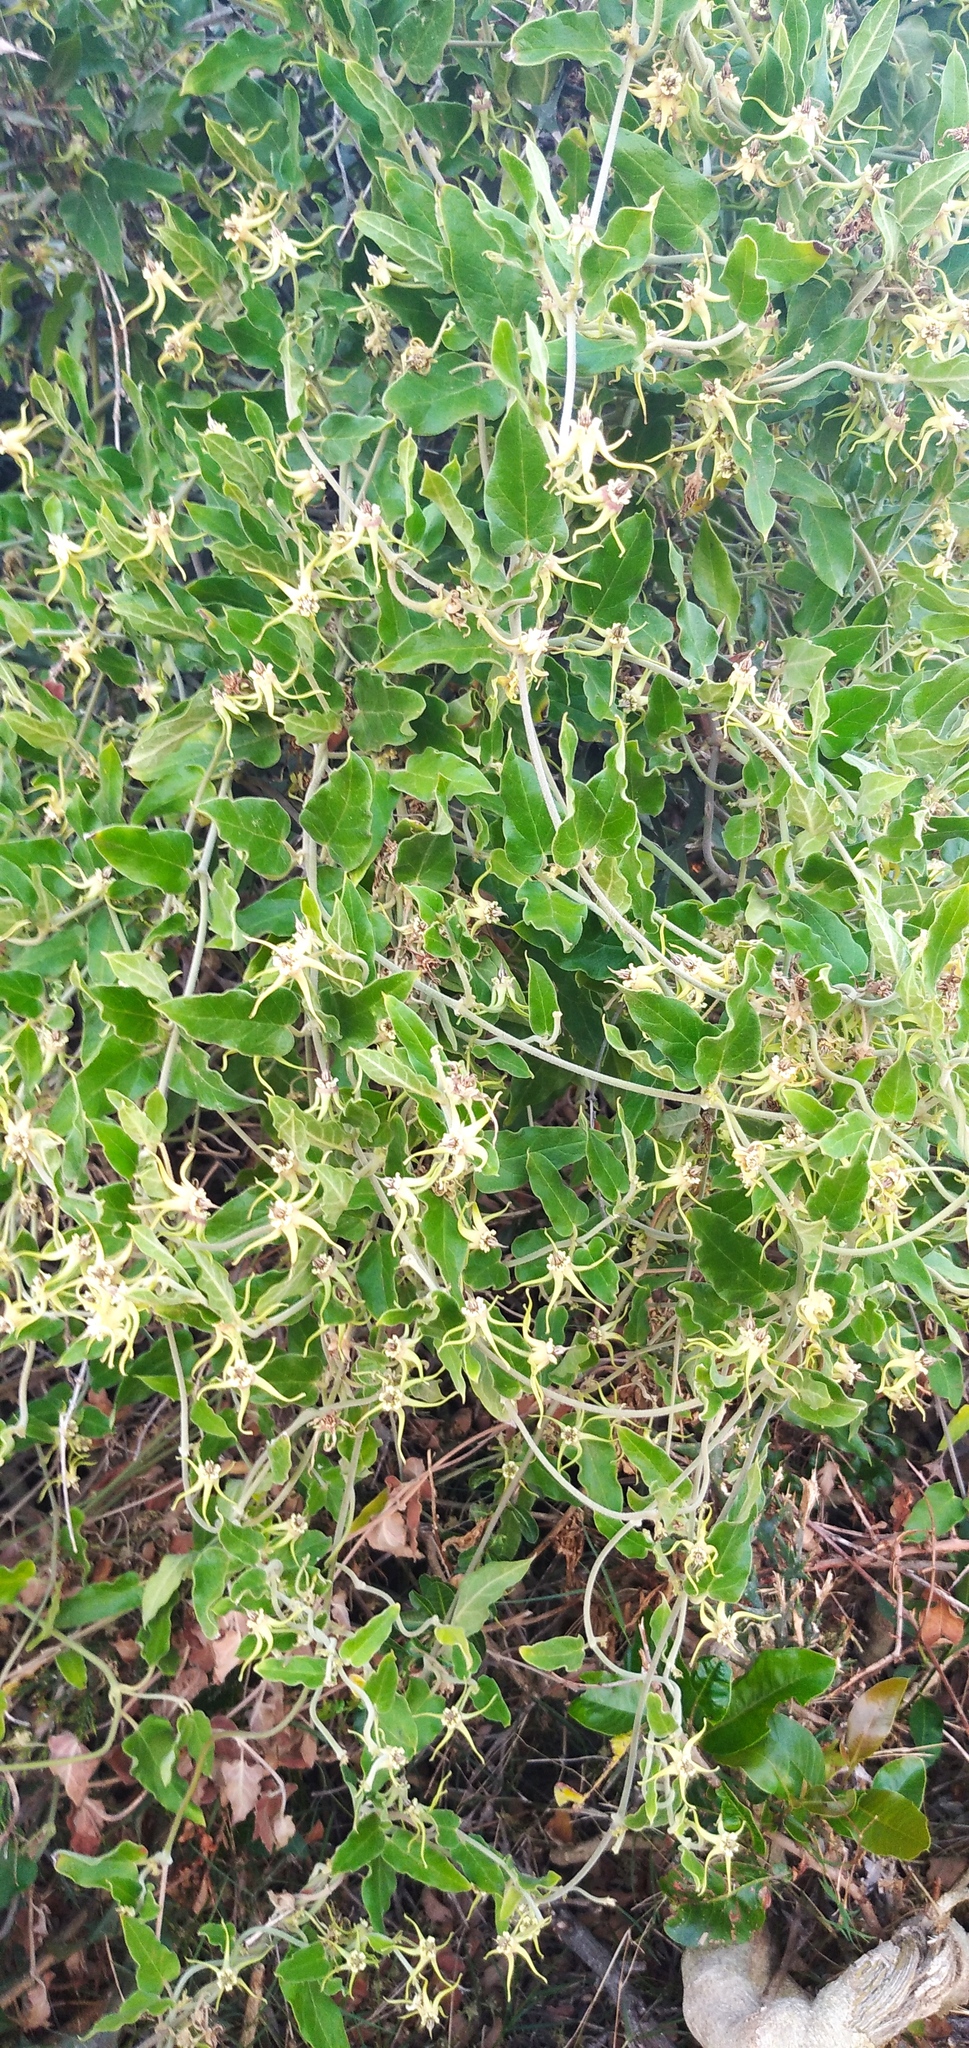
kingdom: Plantae
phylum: Tracheophyta
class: Magnoliopsida
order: Gentianales
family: Apocynaceae
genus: Oxypetalum
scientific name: Oxypetalum pannosum
